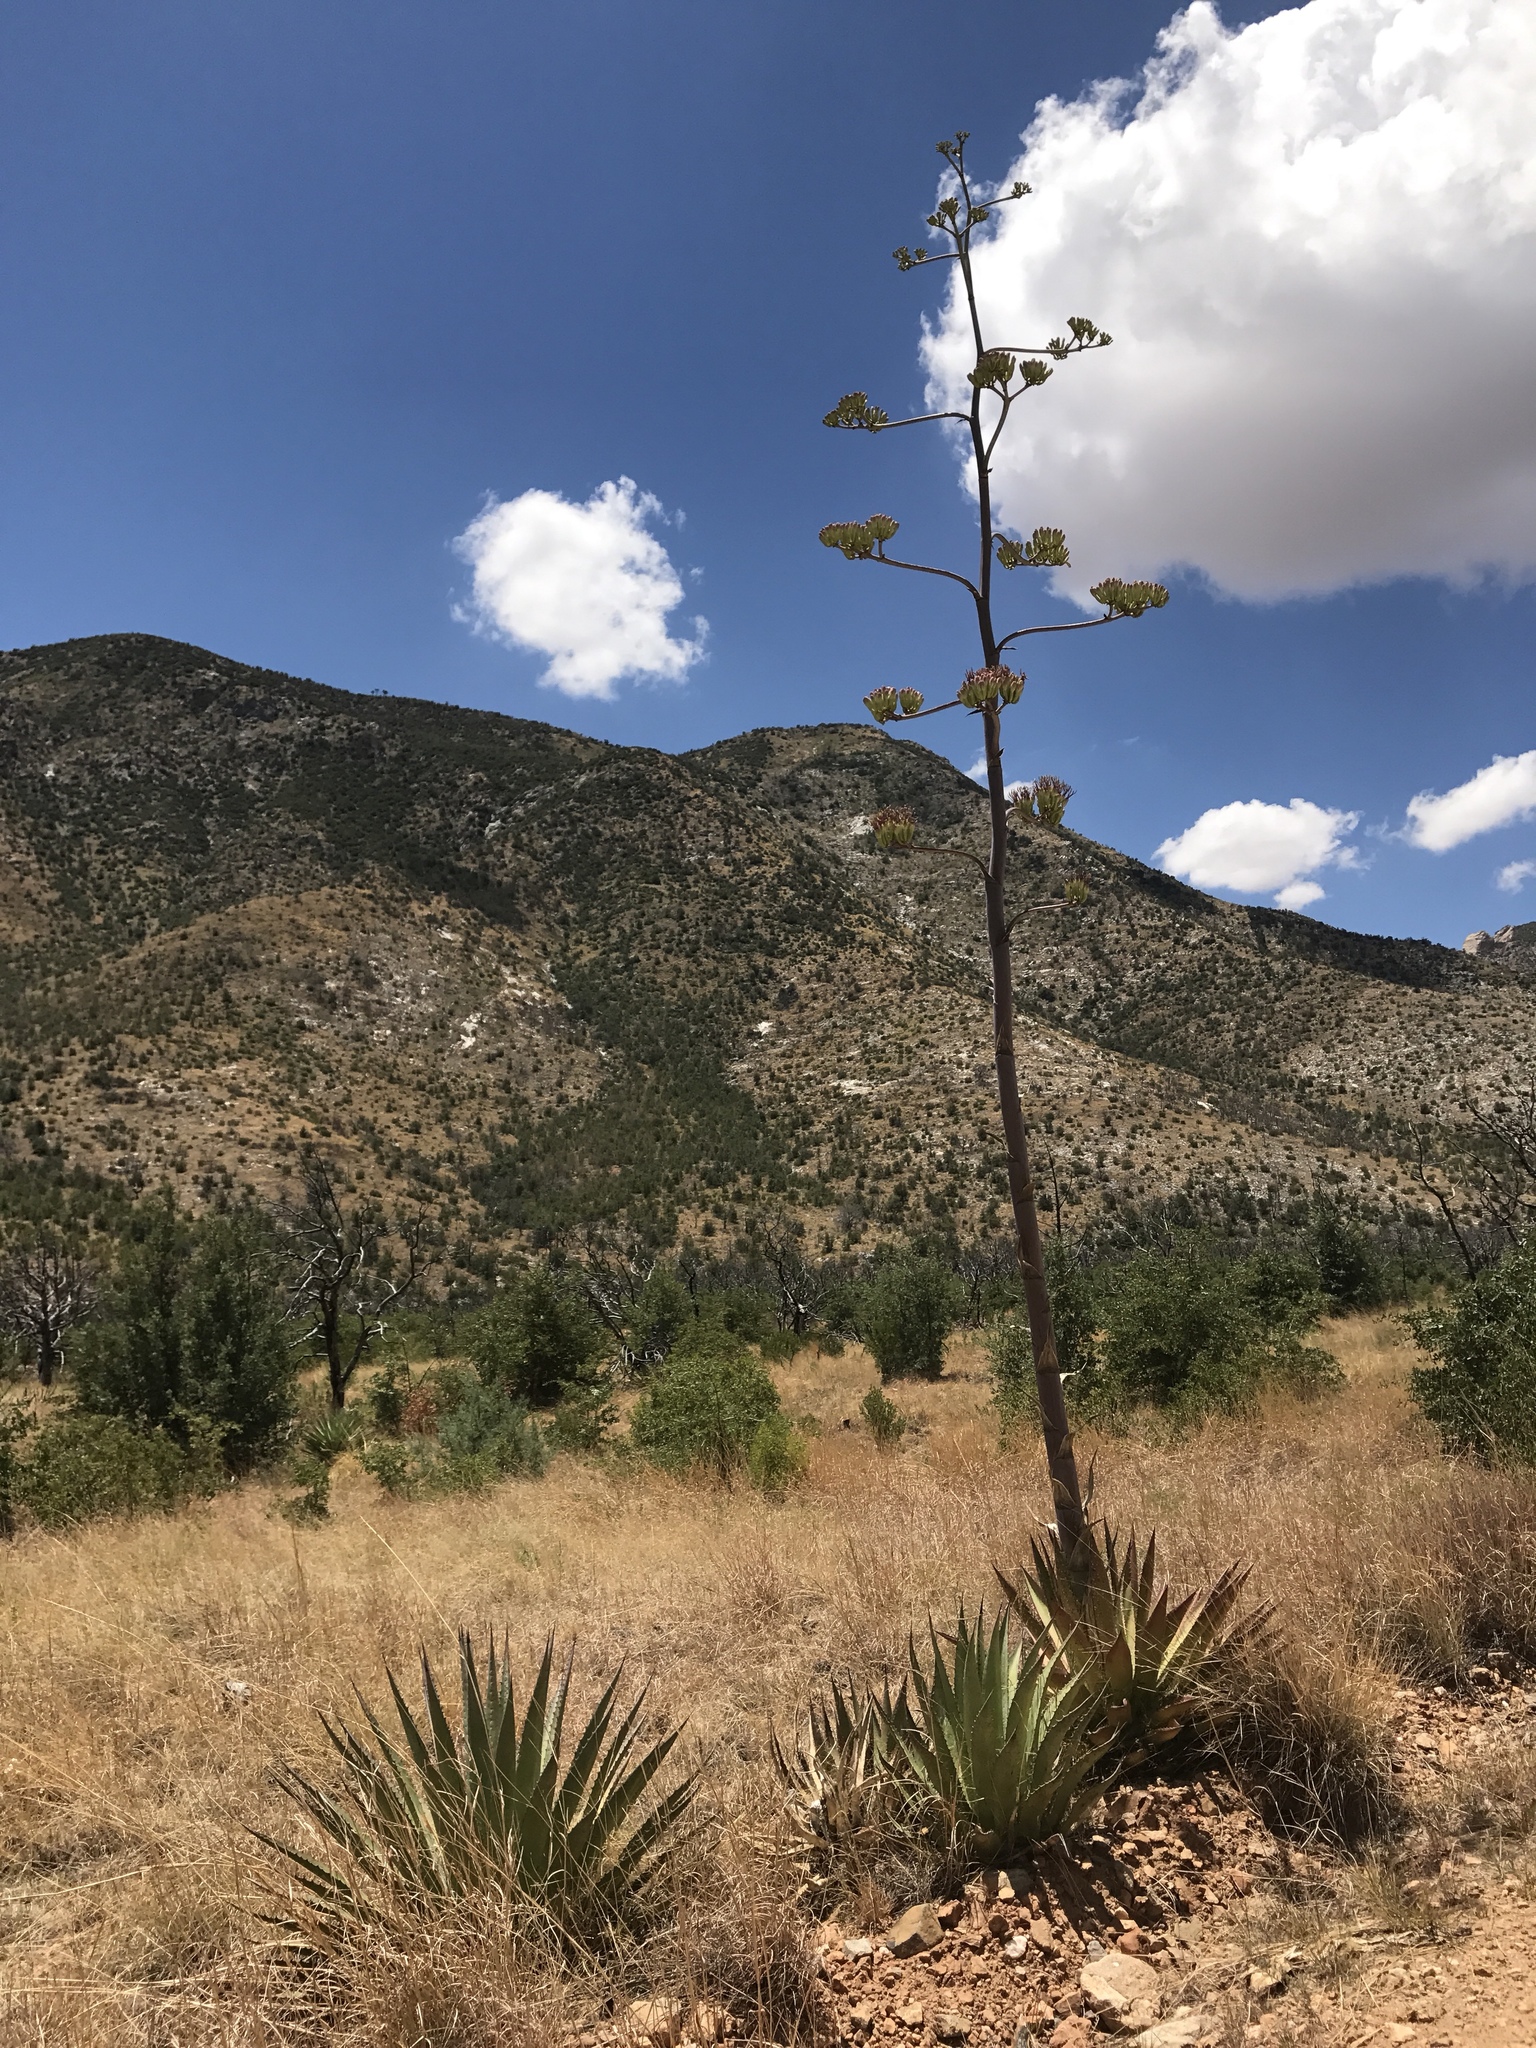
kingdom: Plantae
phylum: Tracheophyta
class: Liliopsida
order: Asparagales
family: Asparagaceae
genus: Agave
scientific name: Agave palmeri
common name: Palmer agave
